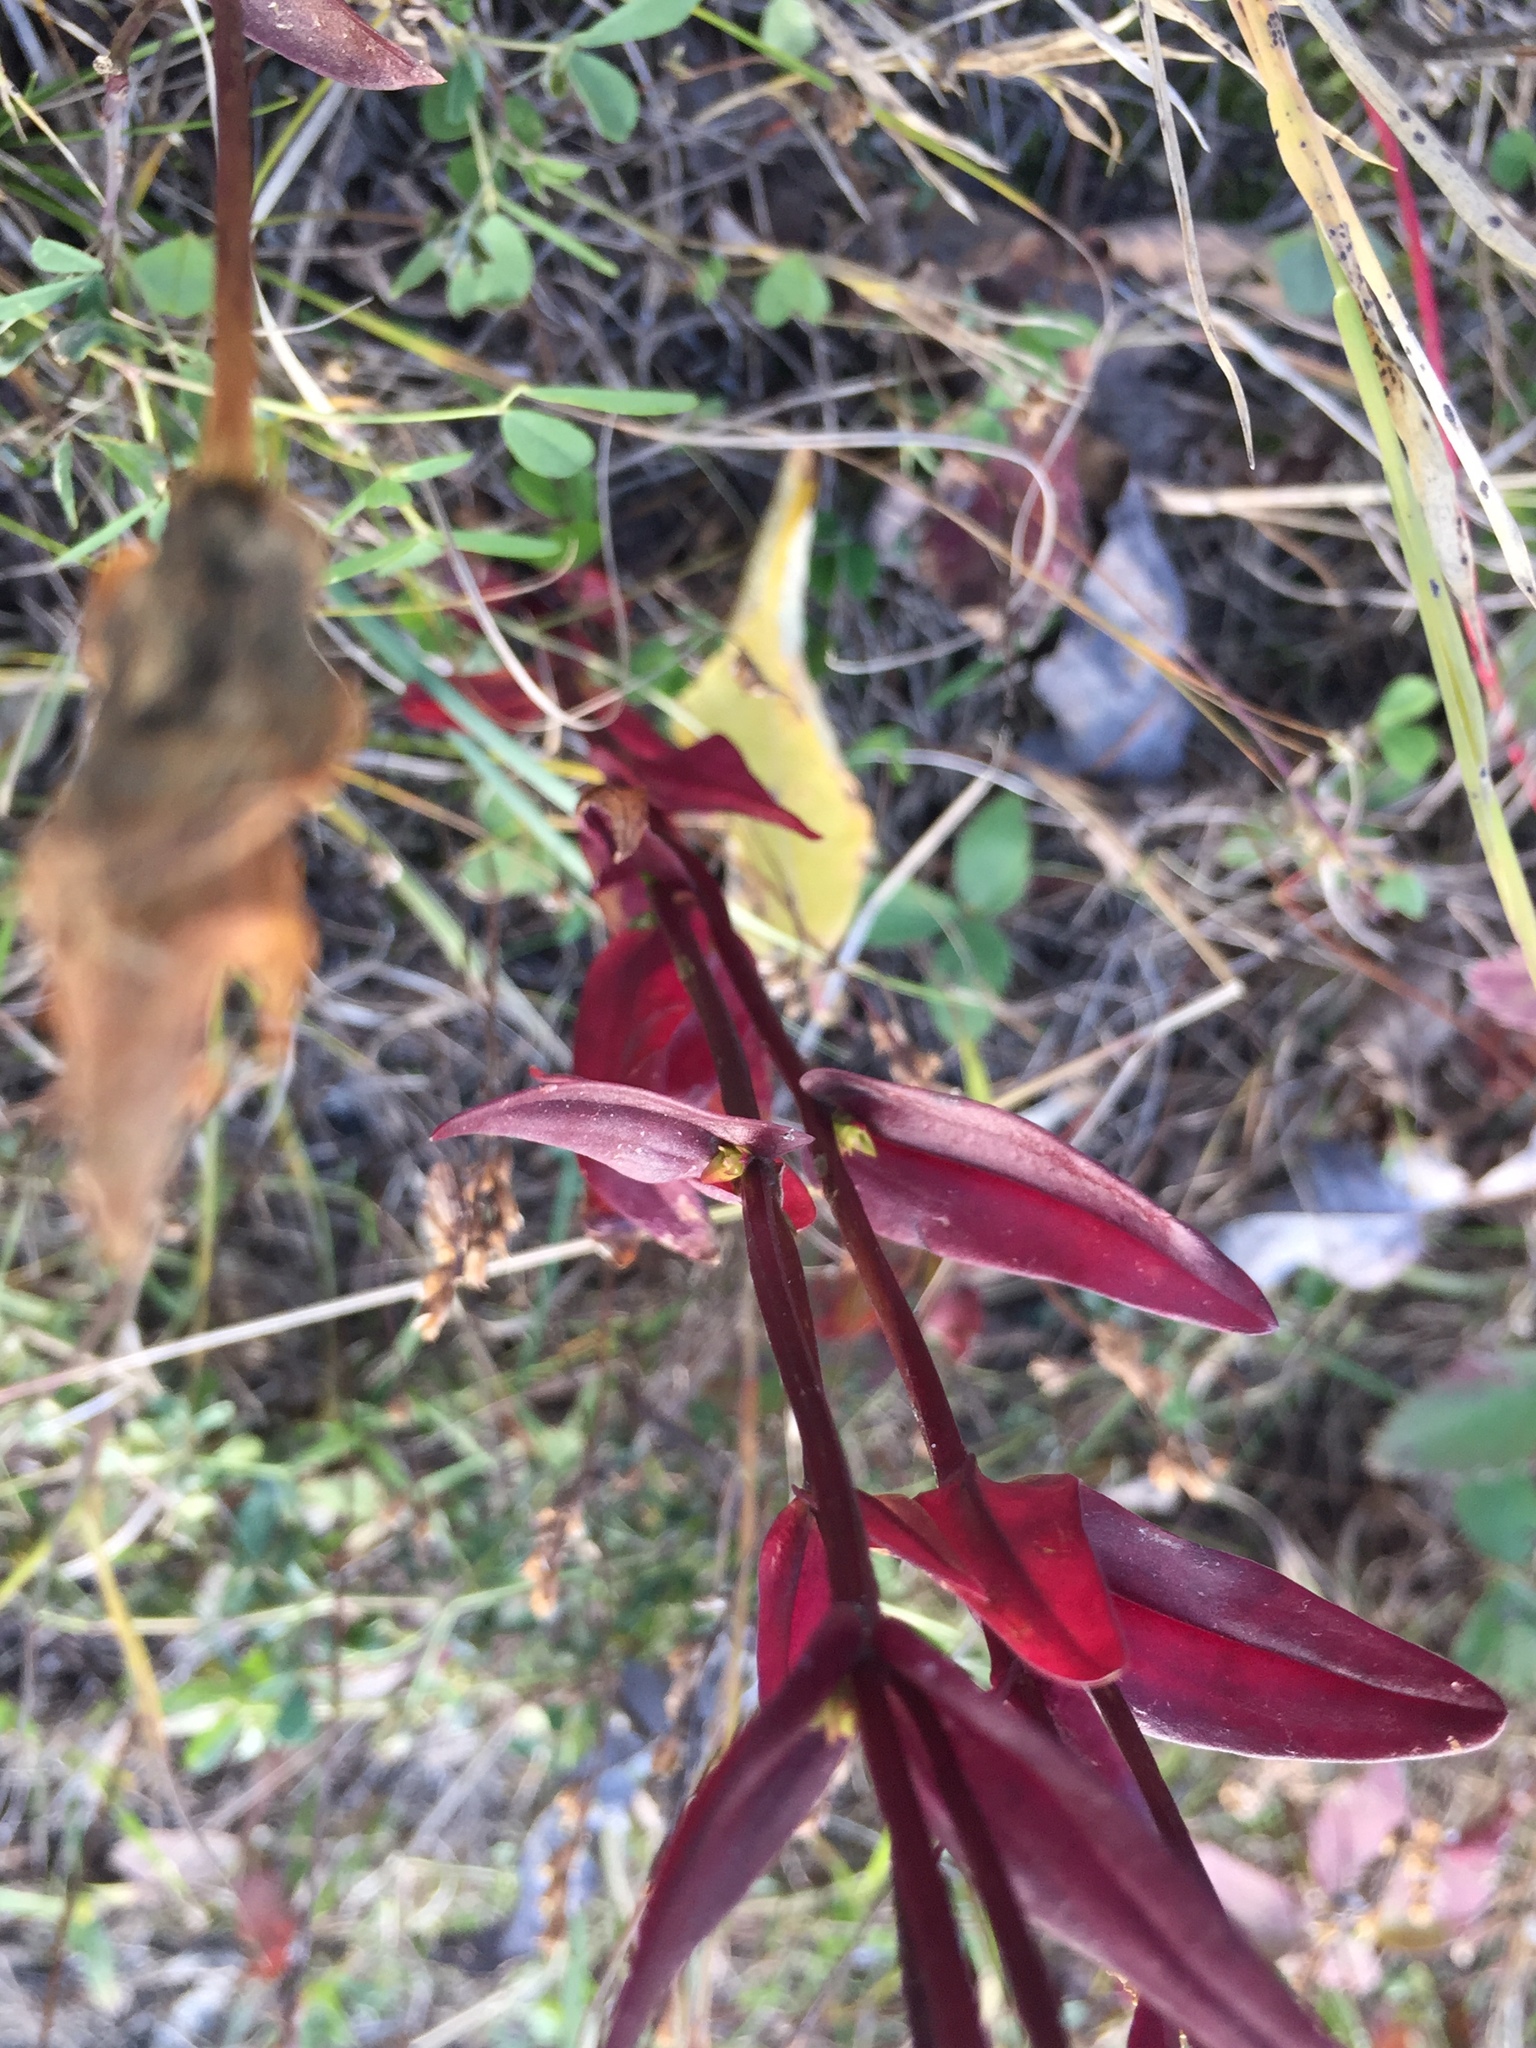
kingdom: Plantae
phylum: Tracheophyta
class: Magnoliopsida
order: Gentianales
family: Gentianaceae
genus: Gentianopsis
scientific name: Gentianopsis crinita
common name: Fringed-gentian
